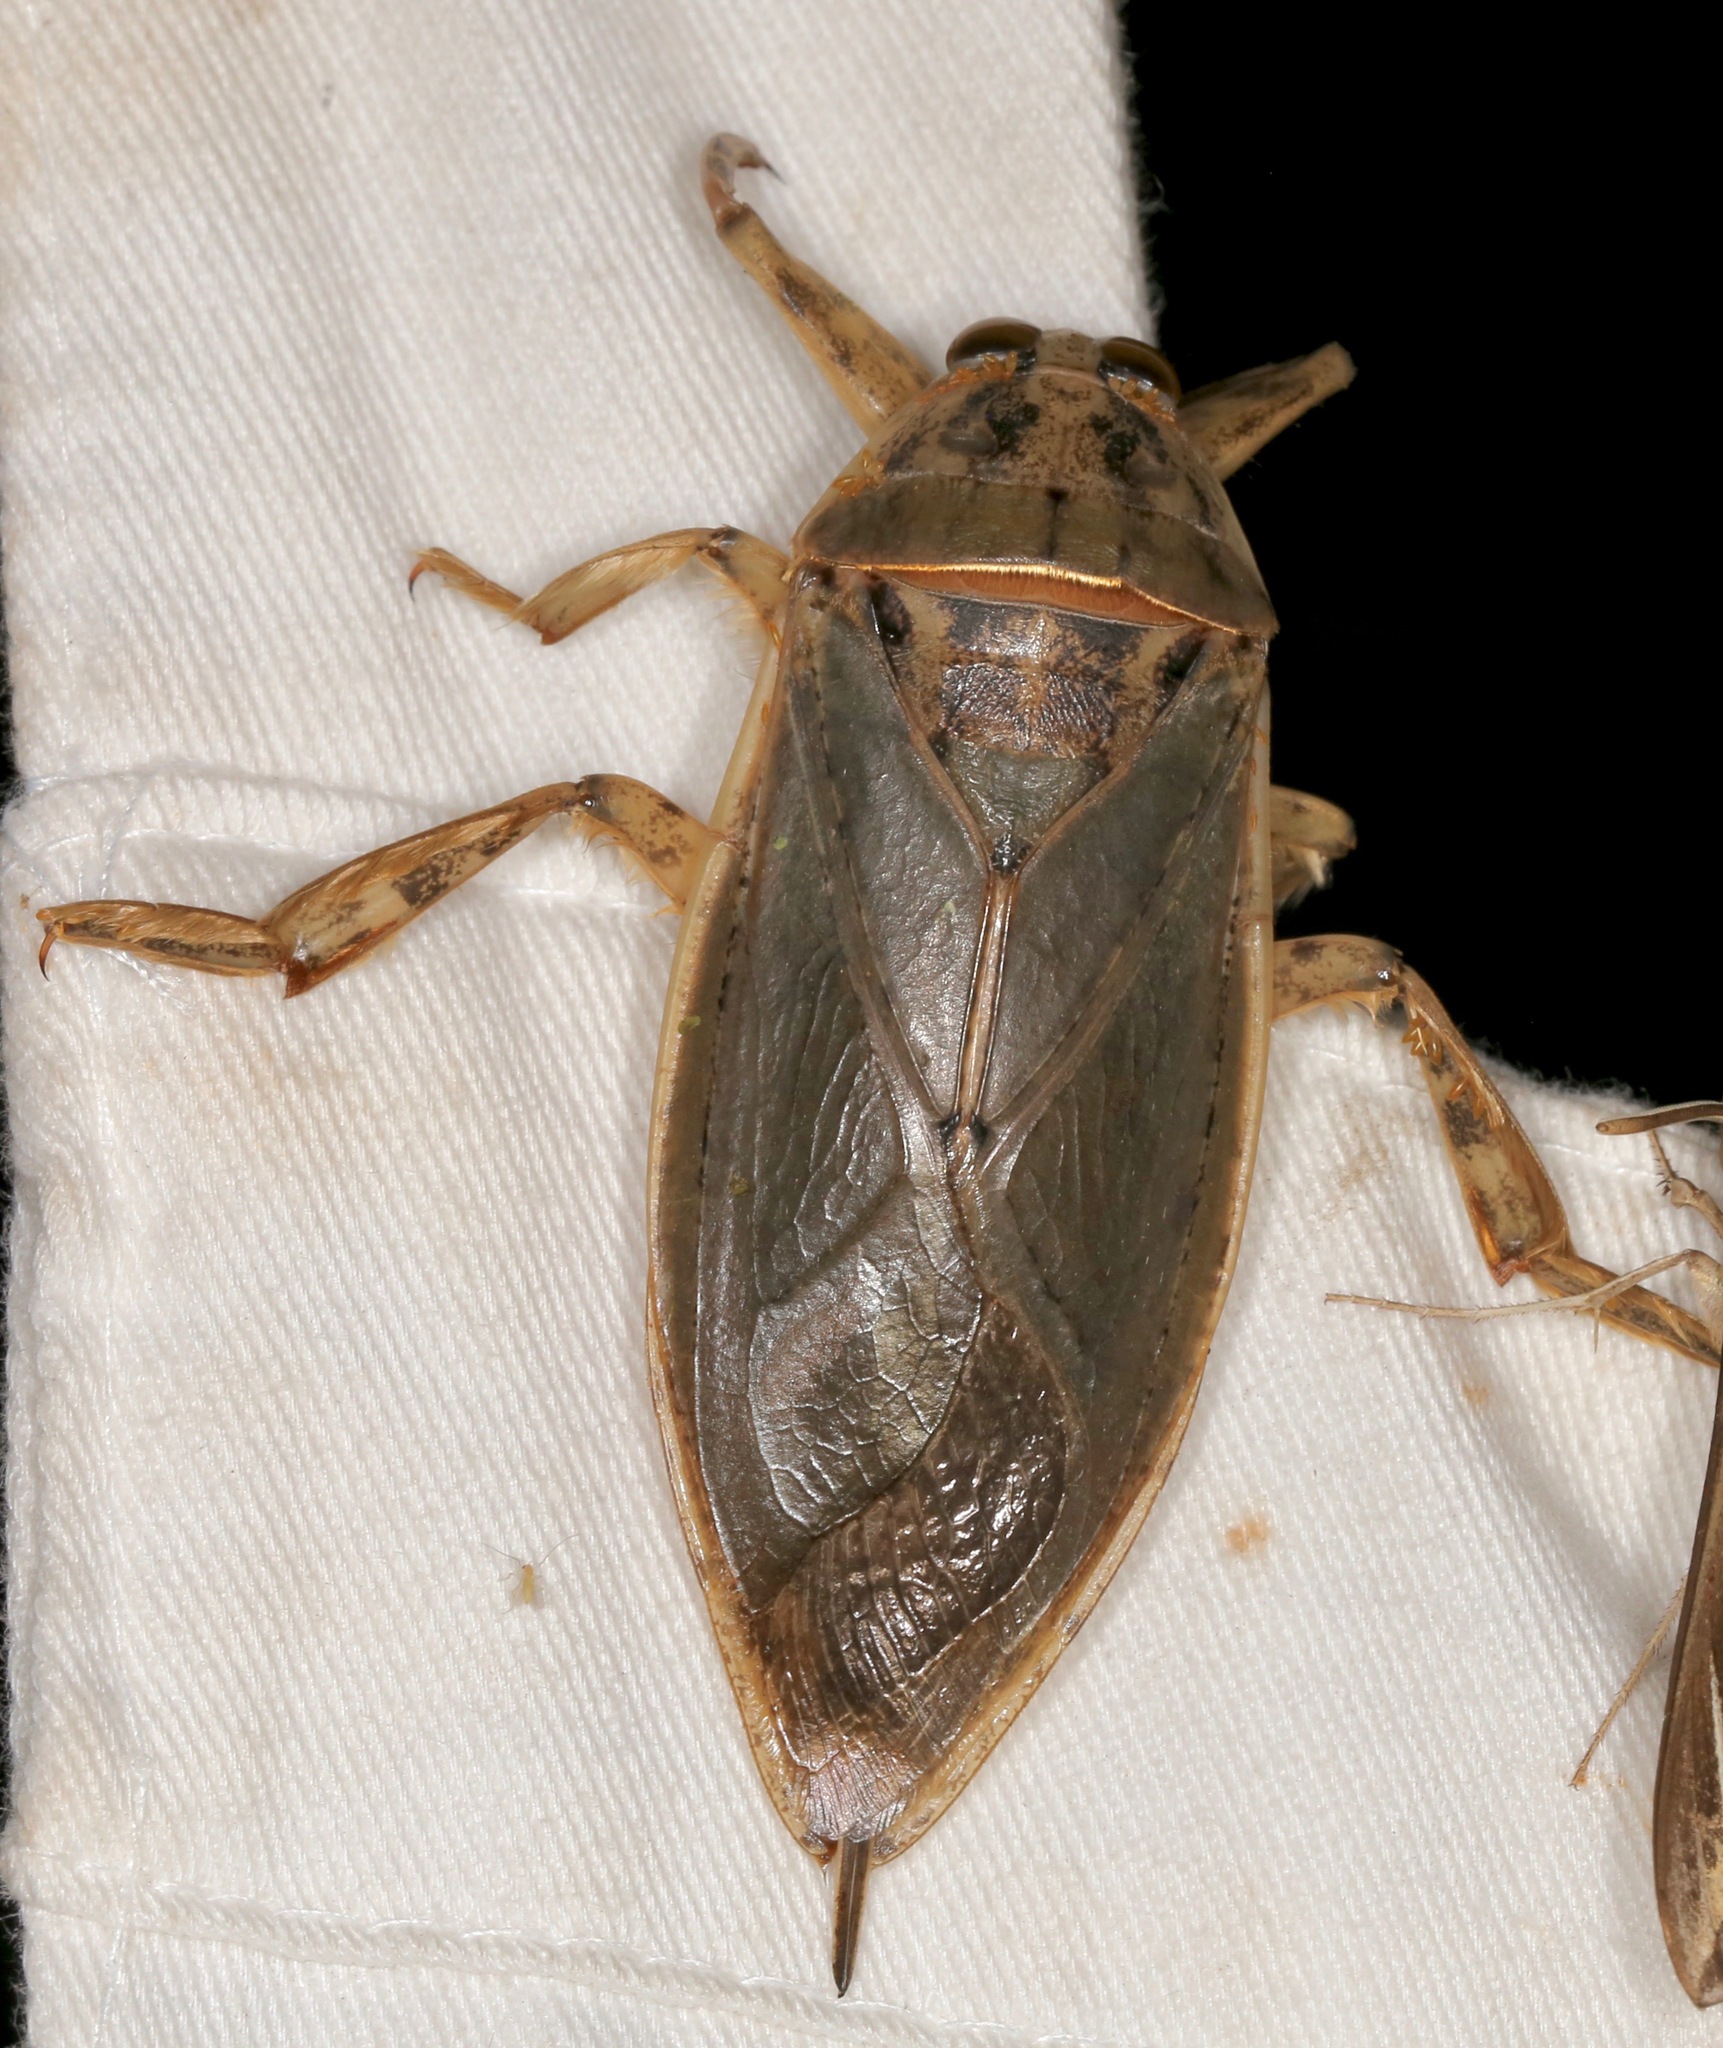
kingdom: Animalia
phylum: Arthropoda
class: Insecta
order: Hemiptera
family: Belostomatidae
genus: Lethocerus
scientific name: Lethocerus medius
